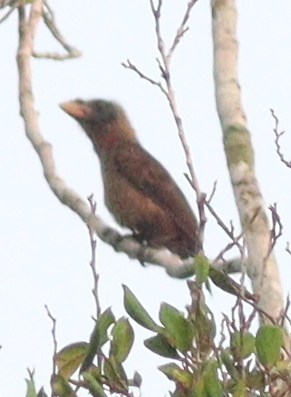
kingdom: Animalia
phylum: Chordata
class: Aves
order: Piciformes
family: Lybiidae
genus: Gymnobucco
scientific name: Gymnobucco calvus
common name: Naked-faced barbet
